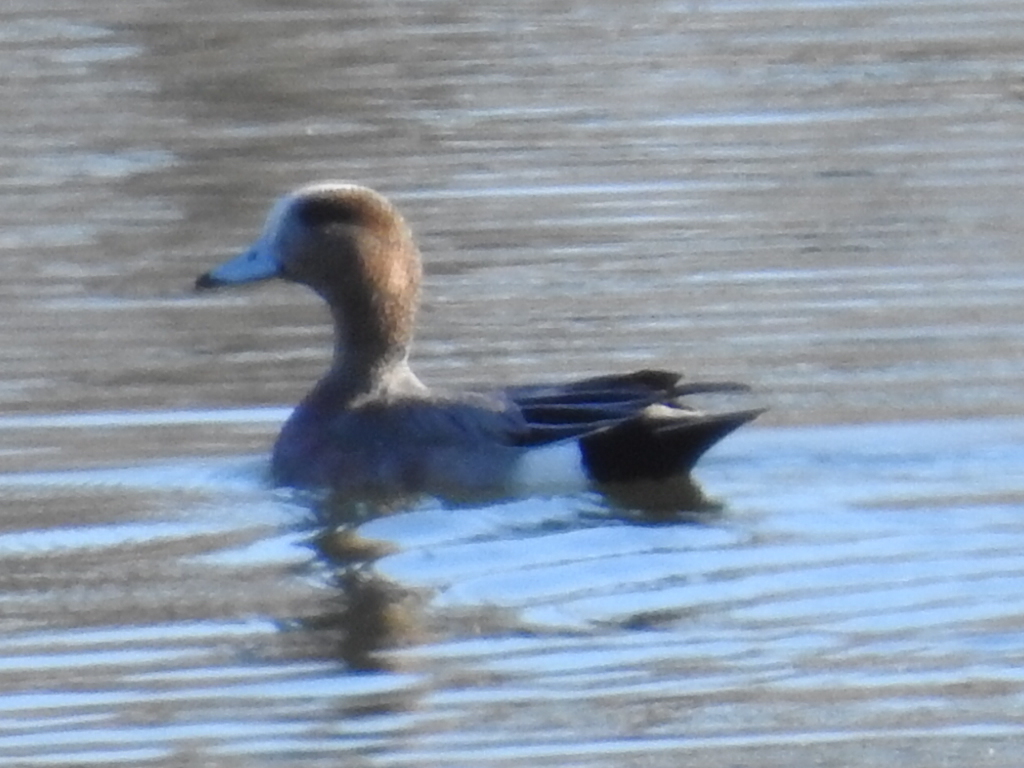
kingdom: Animalia
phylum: Chordata
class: Aves
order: Anseriformes
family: Anatidae
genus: Mareca
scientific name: Mareca americana
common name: American wigeon
